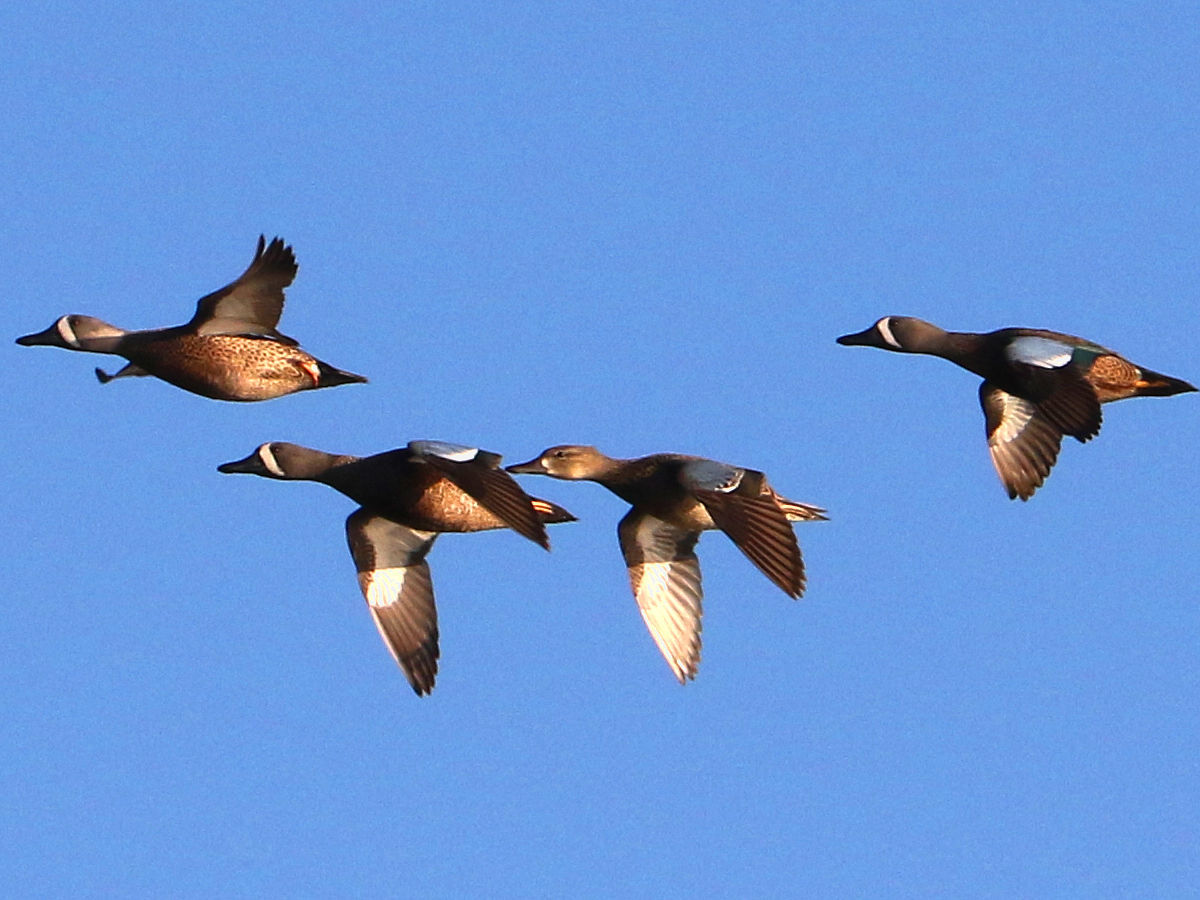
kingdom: Animalia
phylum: Chordata
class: Aves
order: Anseriformes
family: Anatidae
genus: Spatula
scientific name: Spatula discors
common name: Blue-winged teal
